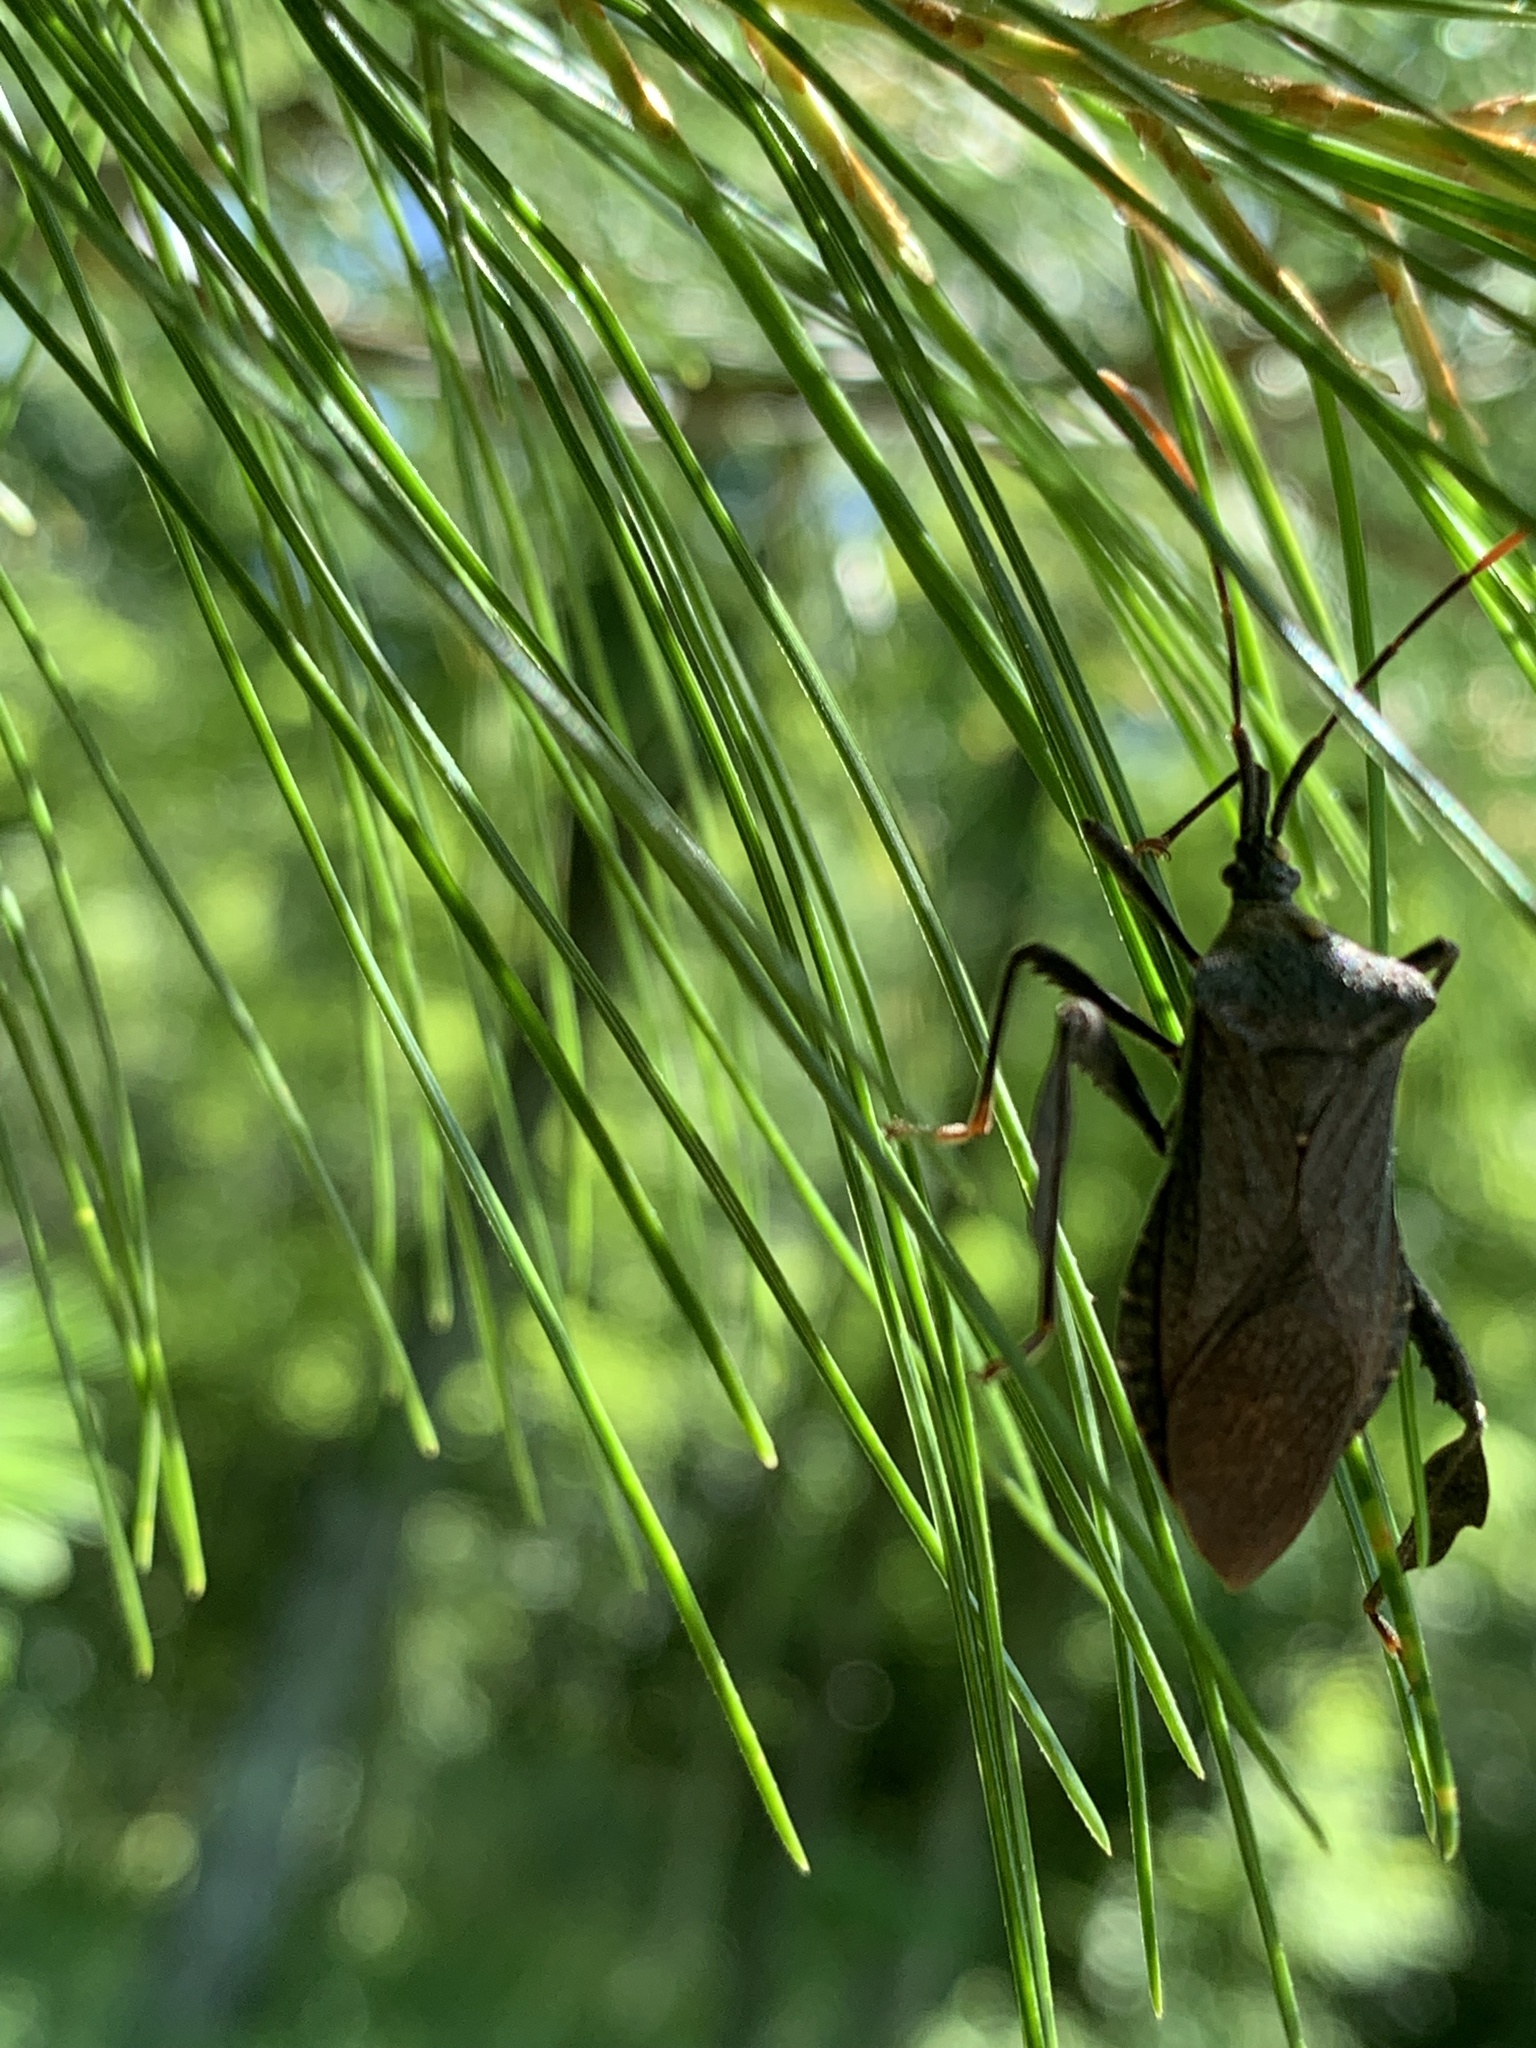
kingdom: Animalia
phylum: Arthropoda
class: Insecta
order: Hemiptera
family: Coreidae
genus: Acanthocephala
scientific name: Acanthocephala terminalis
